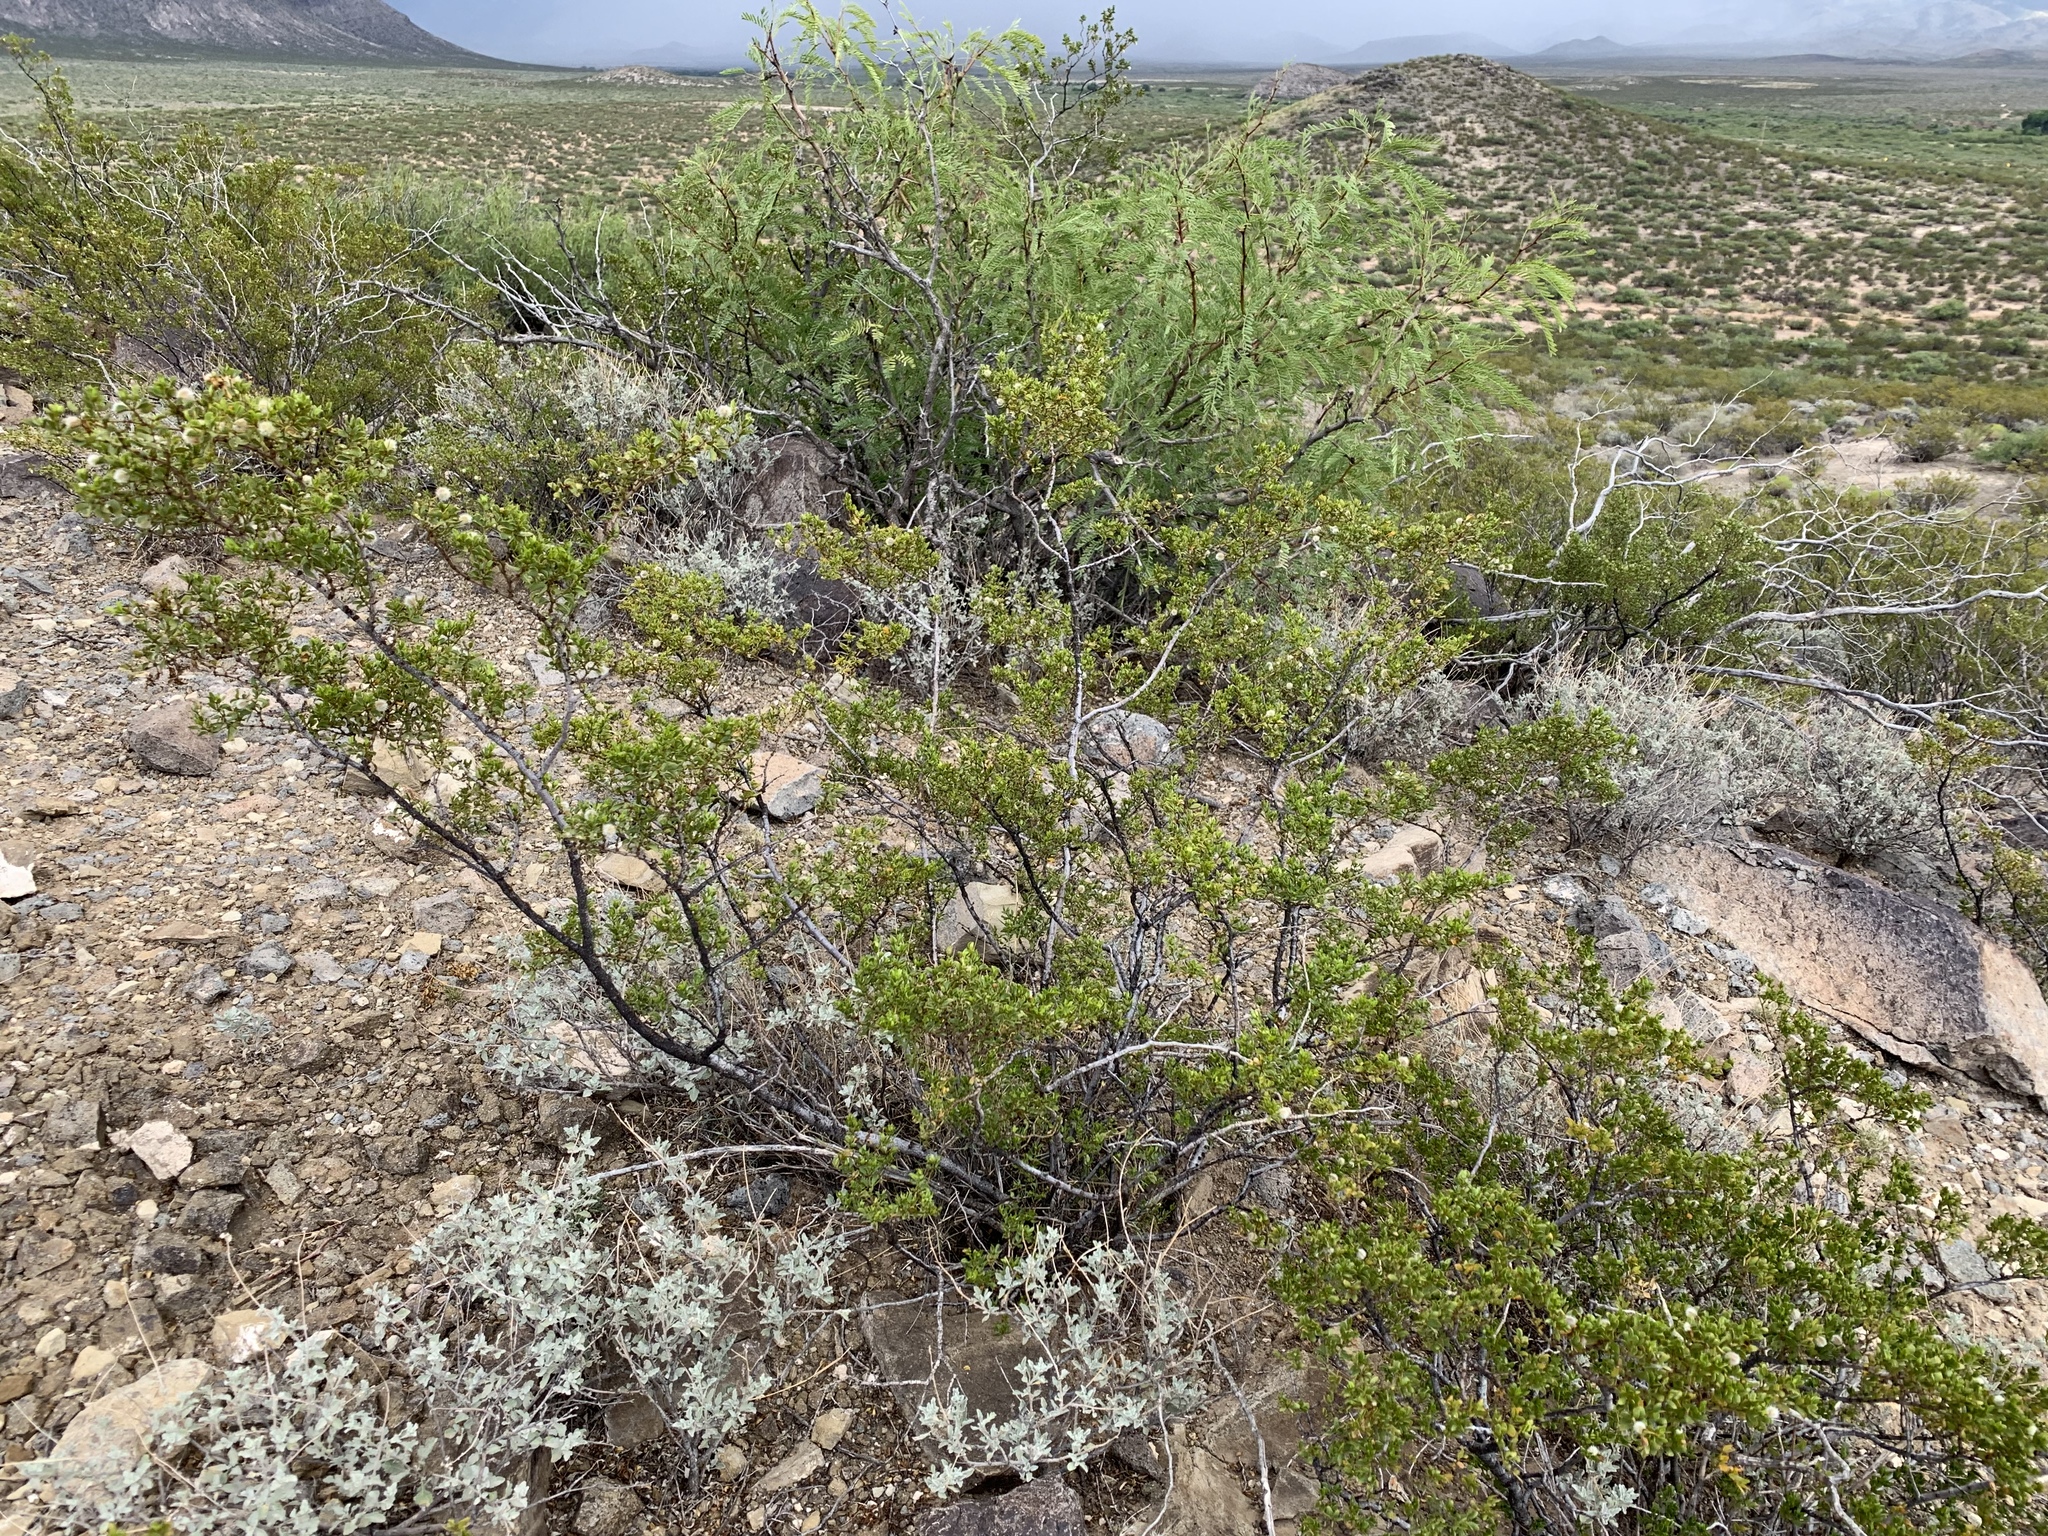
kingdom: Plantae
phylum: Tracheophyta
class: Magnoliopsida
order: Zygophyllales
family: Zygophyllaceae
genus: Larrea
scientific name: Larrea tridentata
